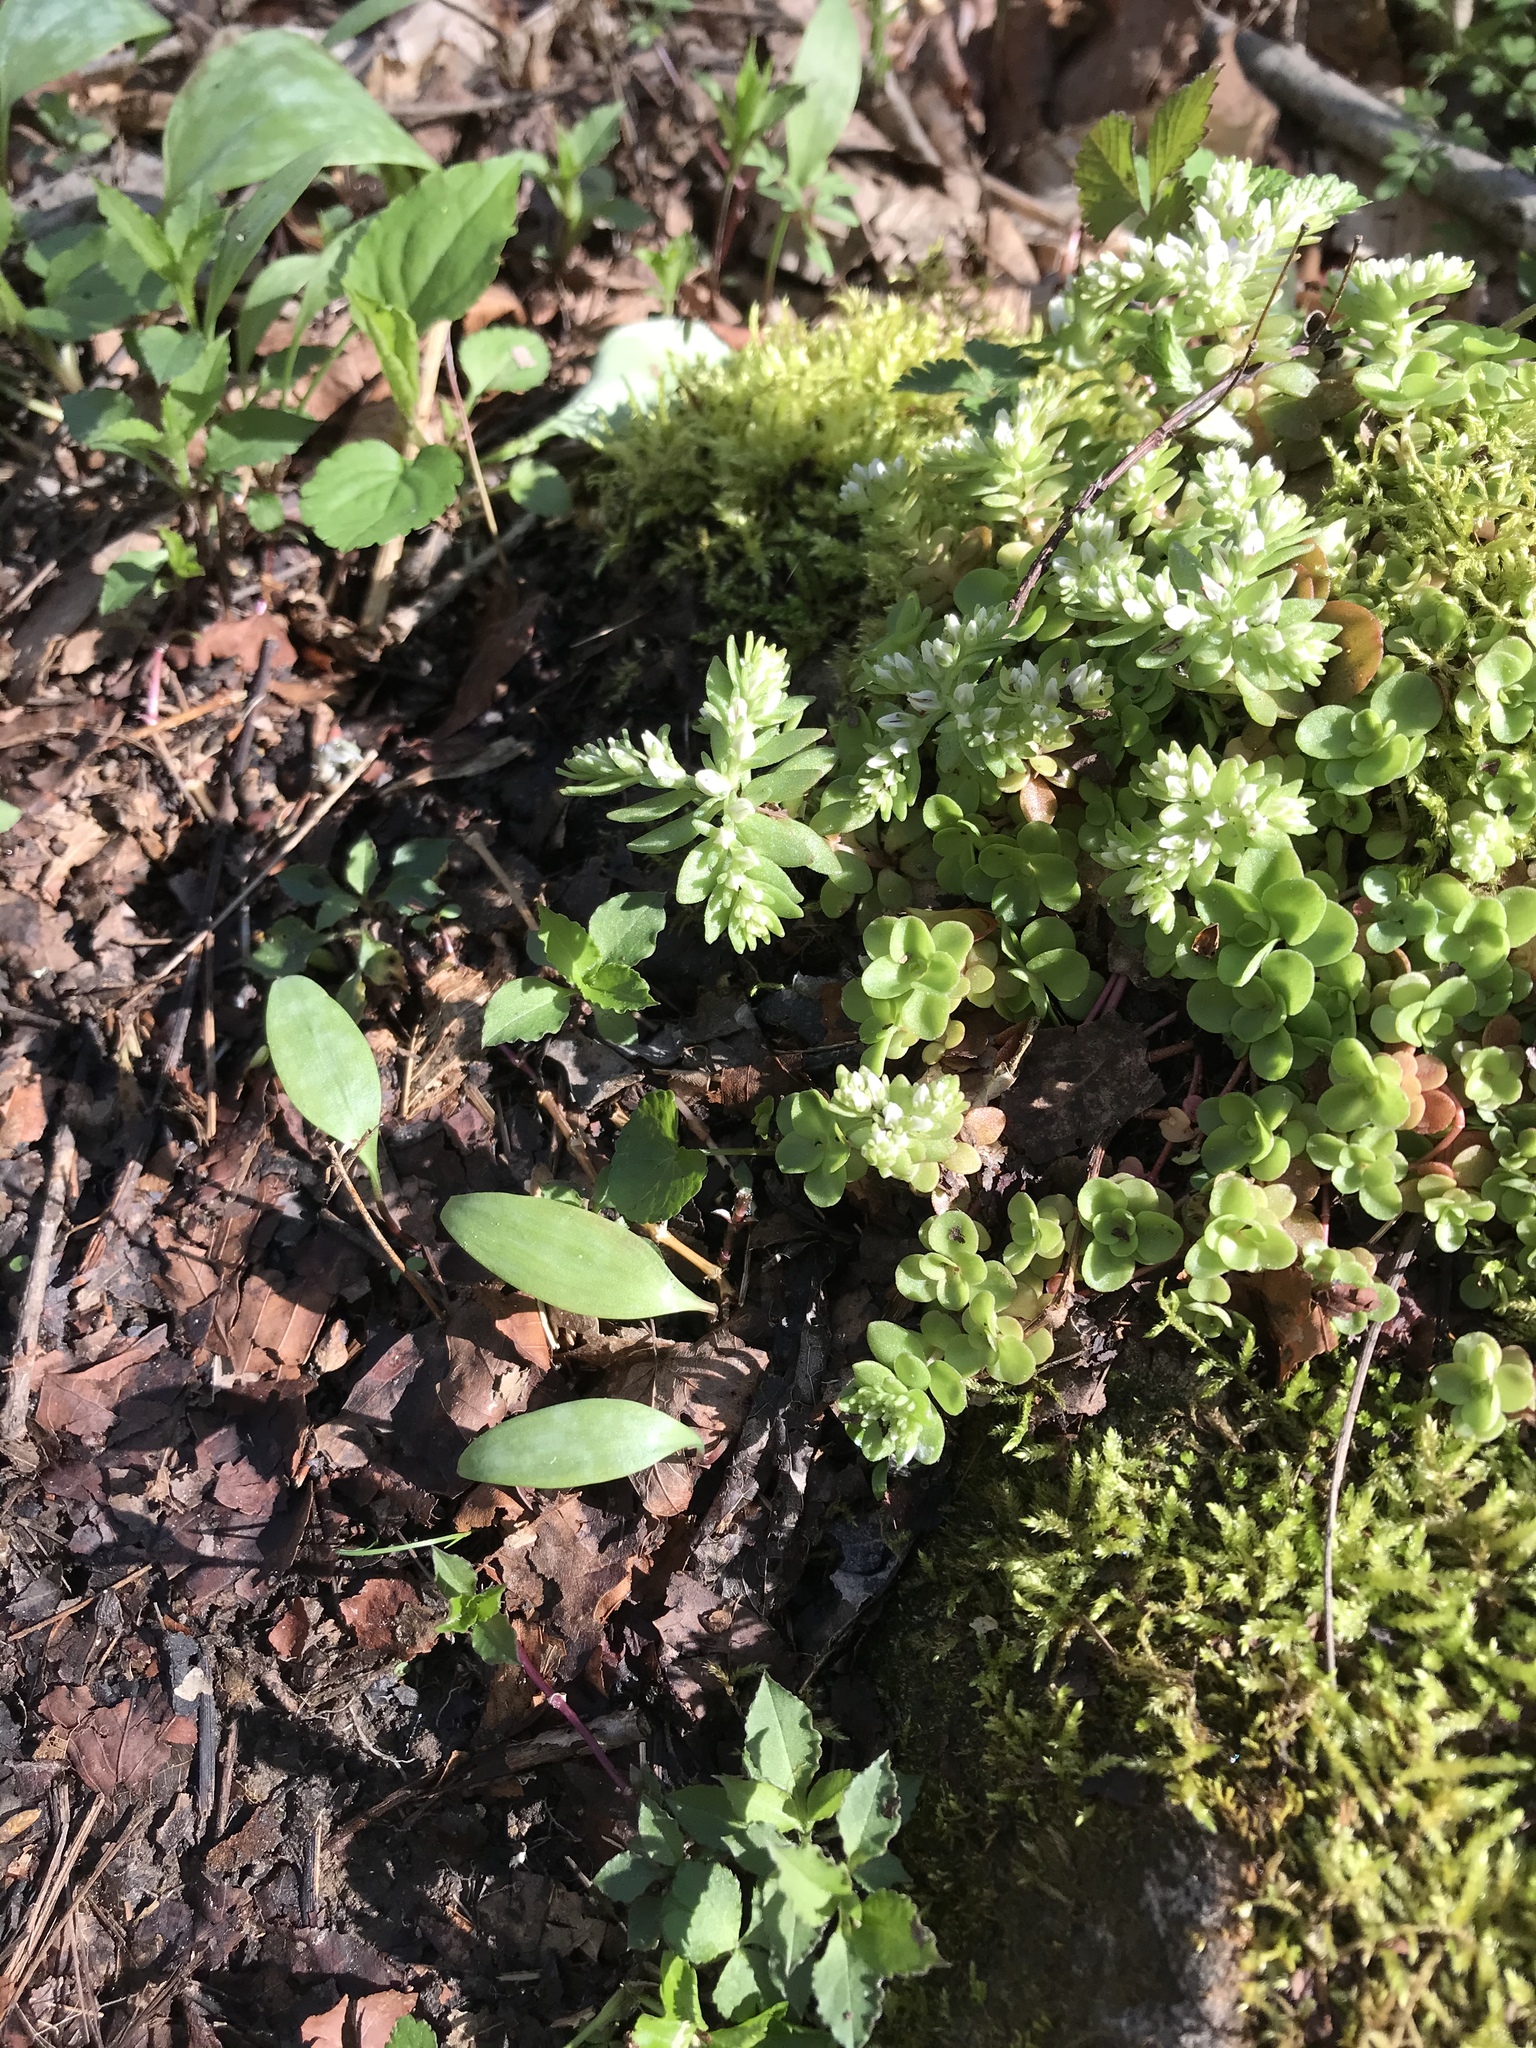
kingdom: Plantae
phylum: Tracheophyta
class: Magnoliopsida
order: Saxifragales
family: Crassulaceae
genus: Sedum
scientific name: Sedum ternatum
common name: Wild stonecrop
